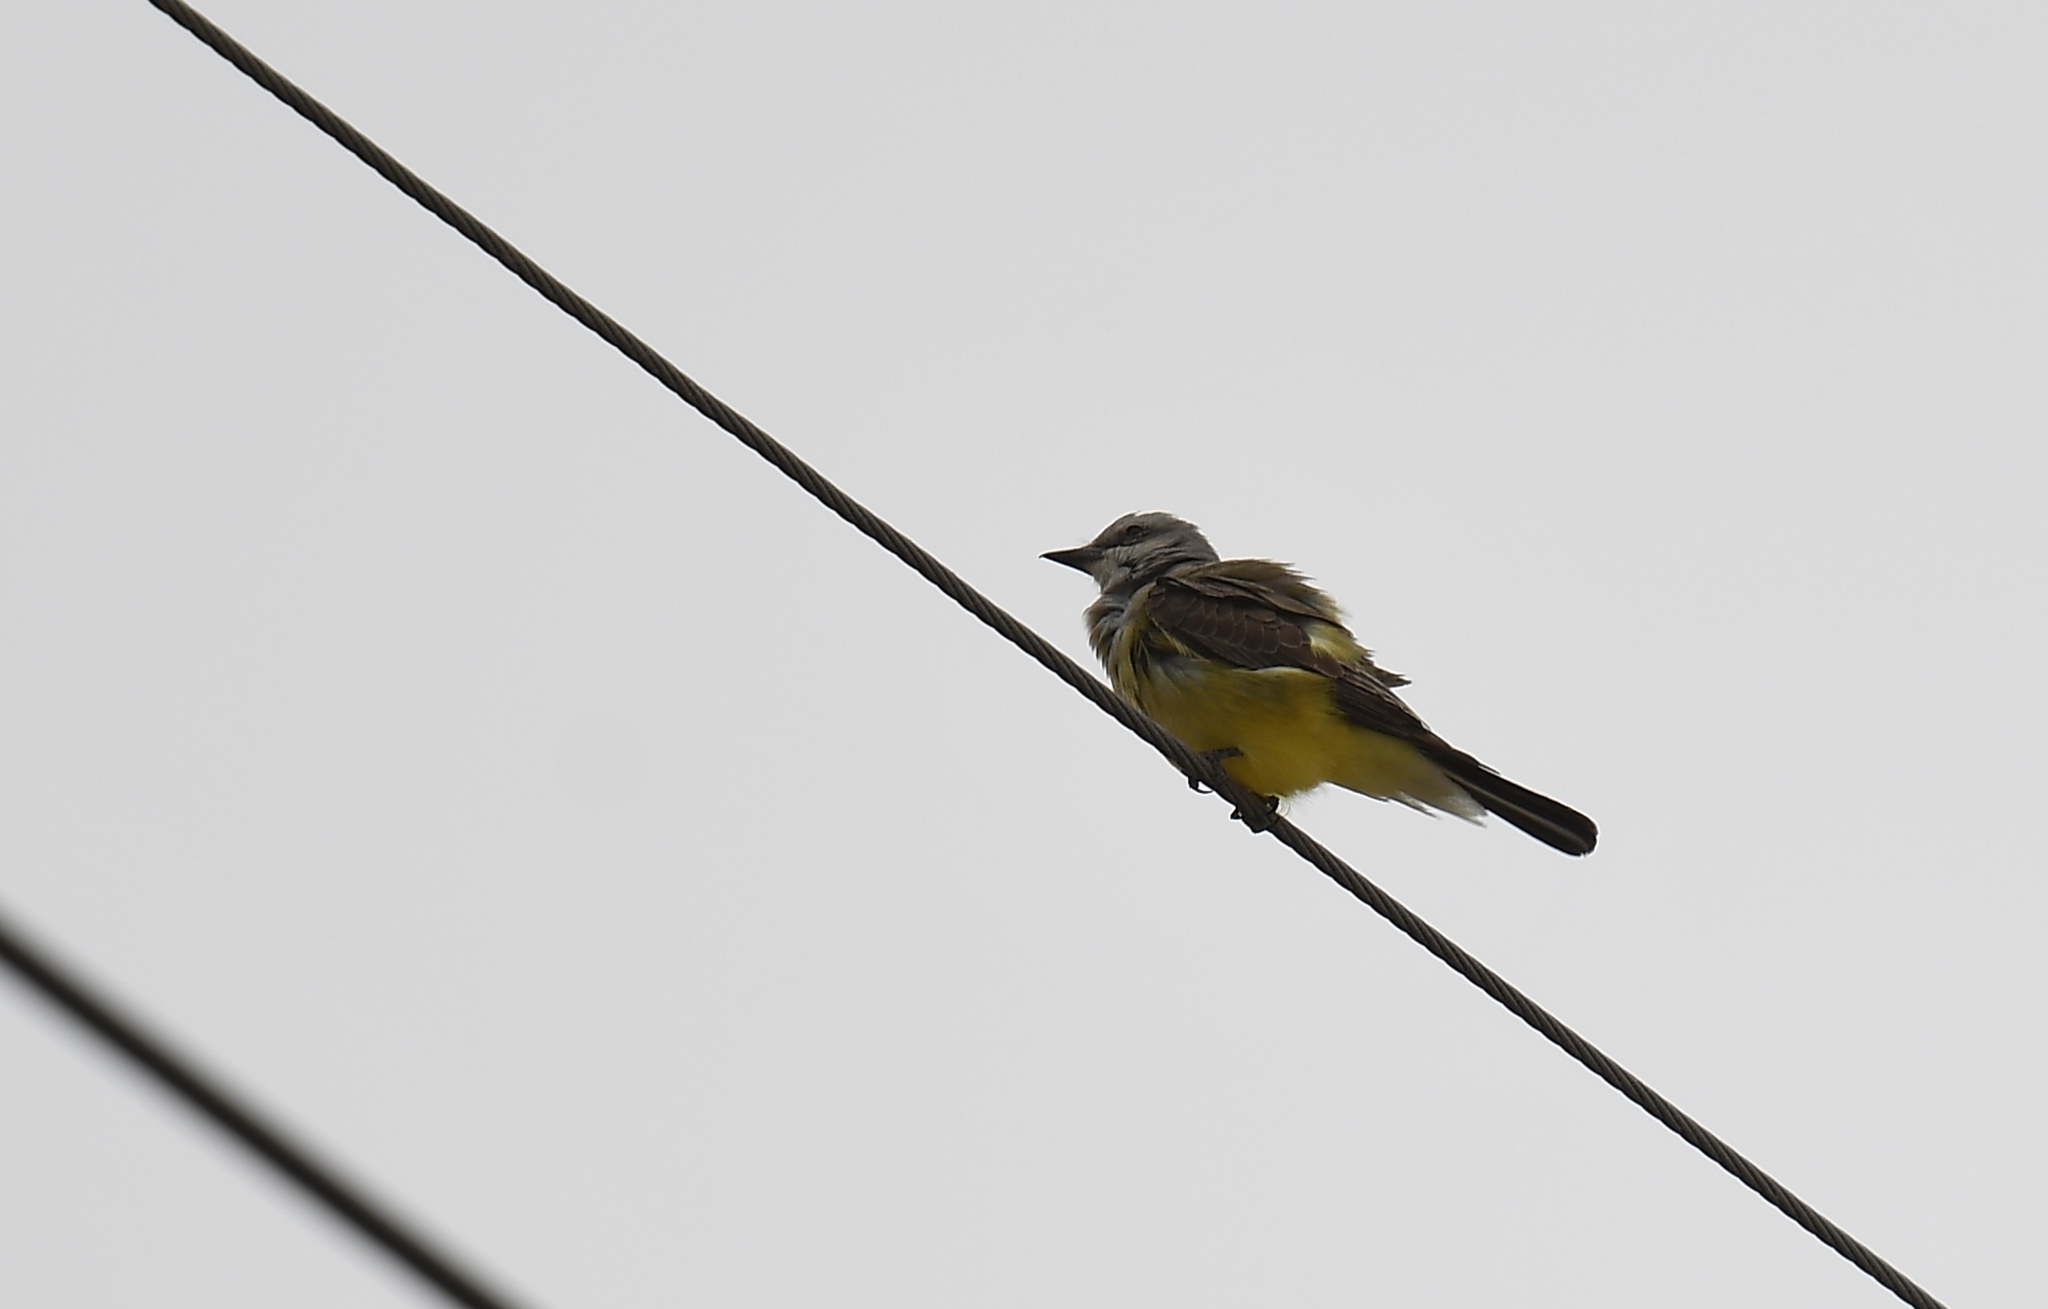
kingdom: Animalia
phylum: Chordata
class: Aves
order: Passeriformes
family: Tyrannidae
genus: Tyrannus
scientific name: Tyrannus verticalis
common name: Western kingbird
